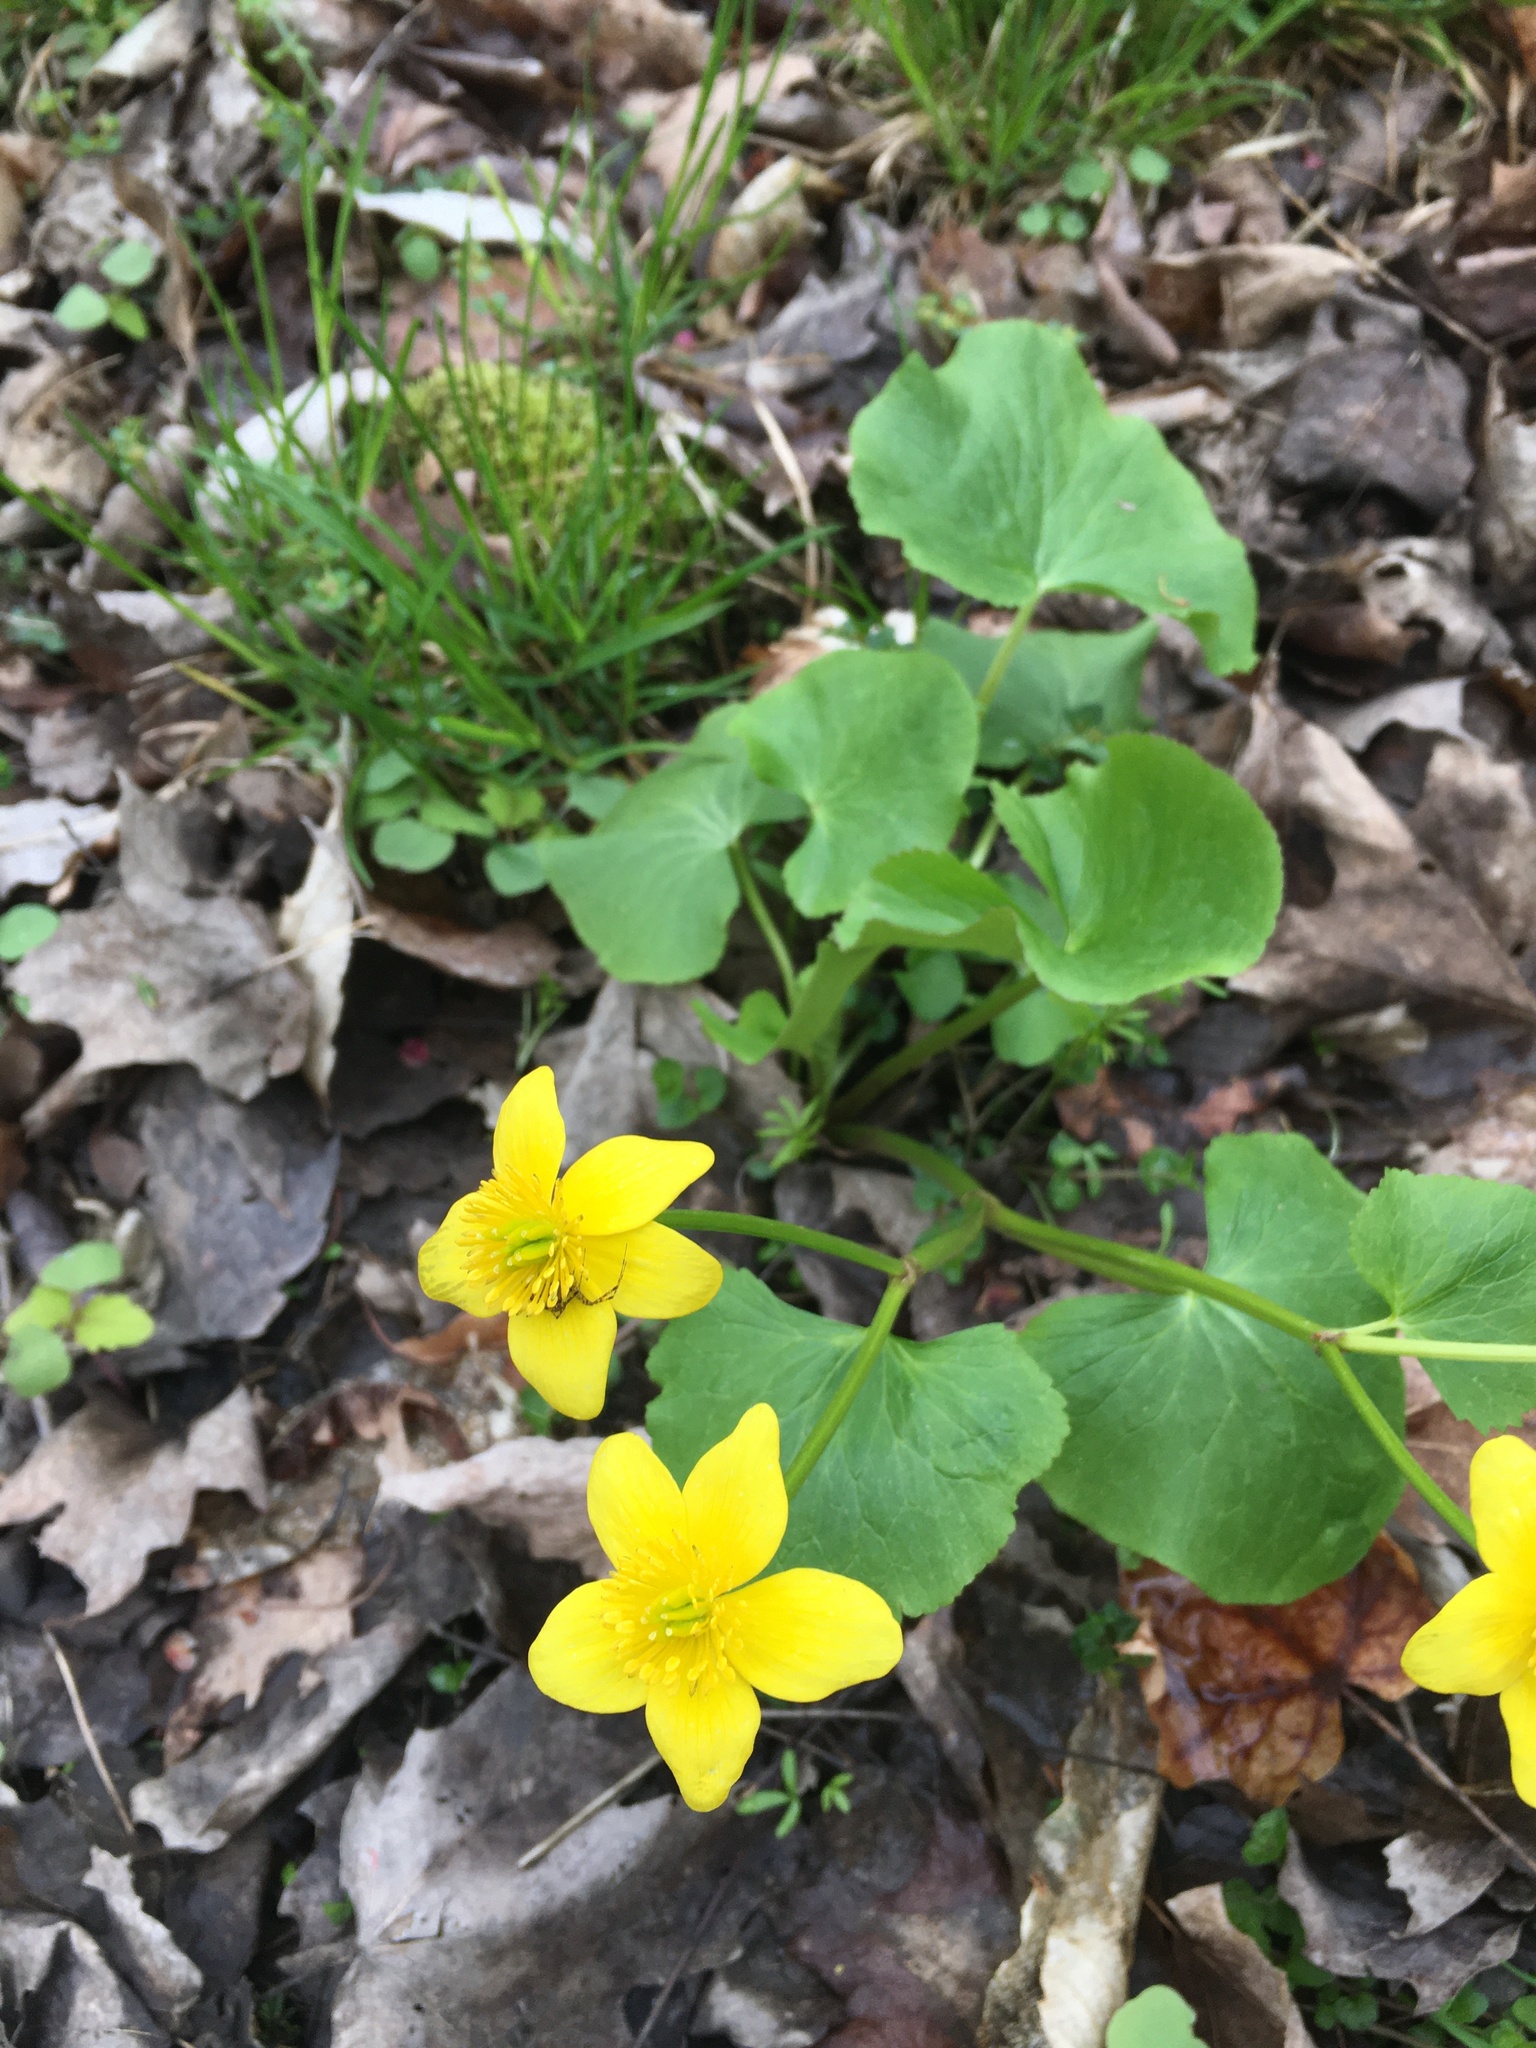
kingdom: Plantae
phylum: Tracheophyta
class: Magnoliopsida
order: Ranunculales
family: Ranunculaceae
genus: Caltha
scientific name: Caltha palustris
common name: Marsh marigold
